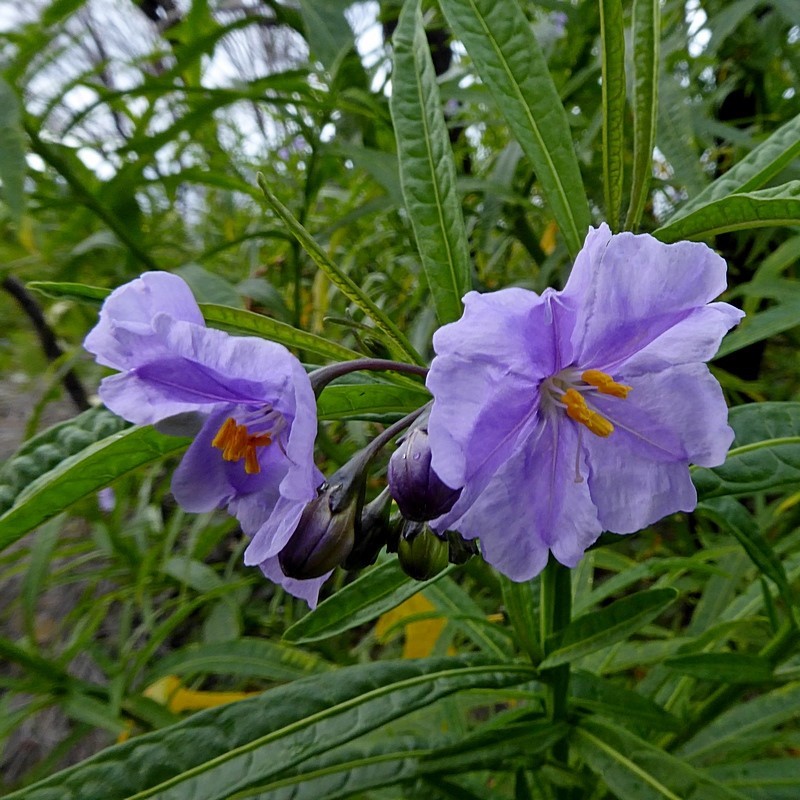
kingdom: Plantae
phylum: Tracheophyta
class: Magnoliopsida
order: Solanales
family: Solanaceae
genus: Solanum
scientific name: Solanum vescum
